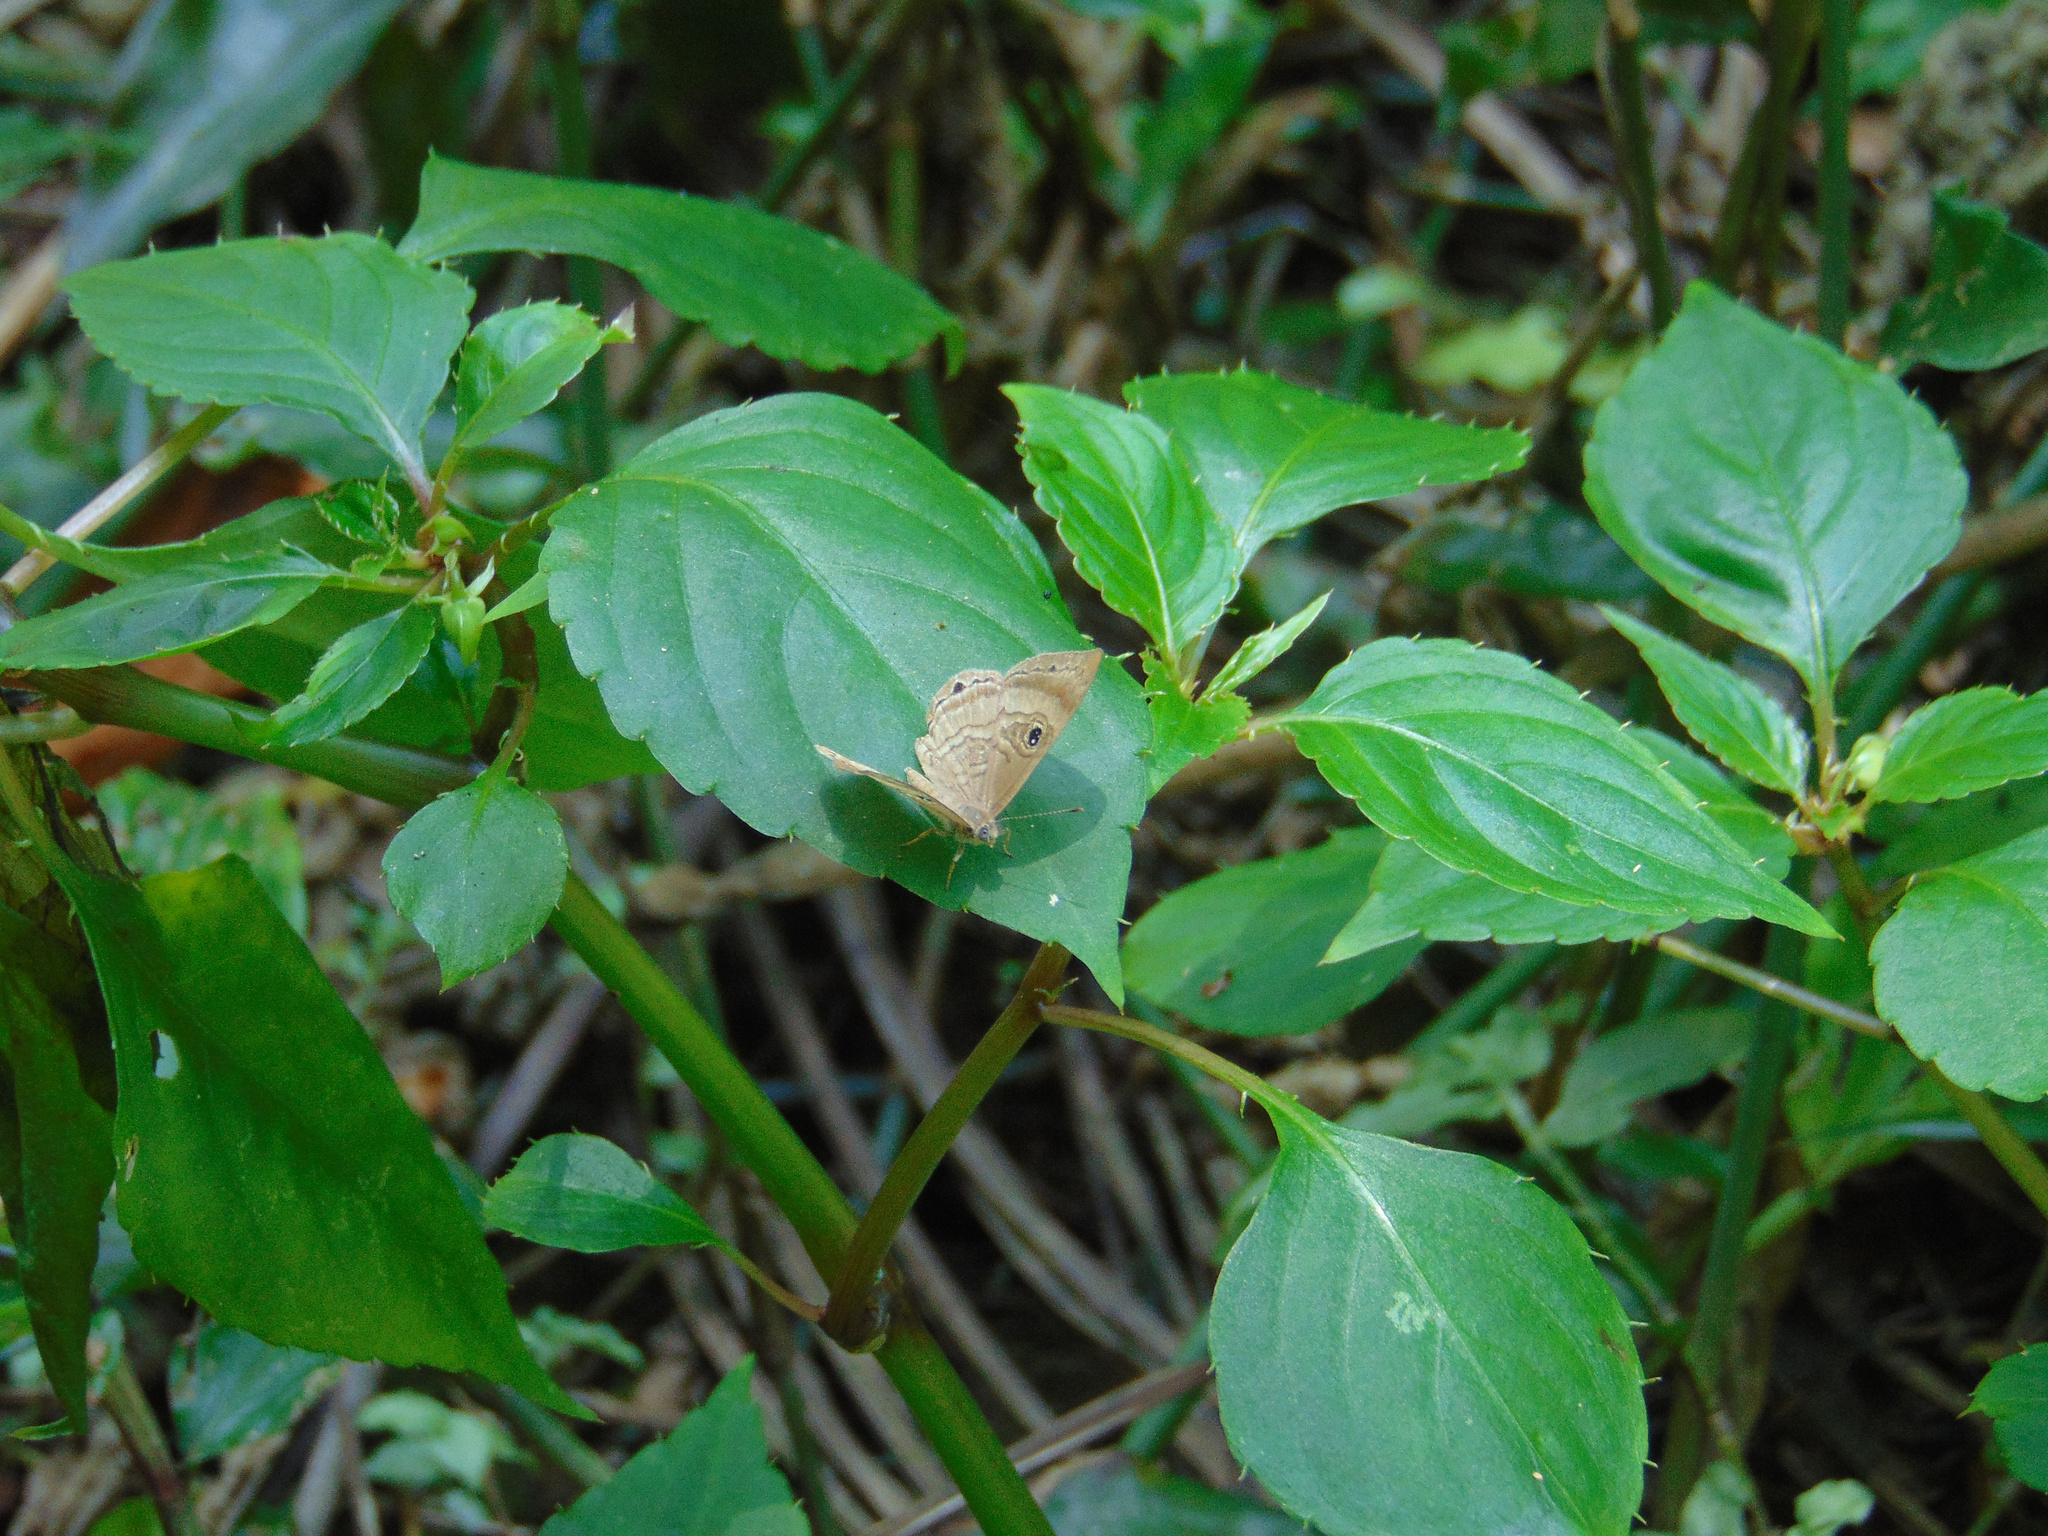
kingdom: Animalia
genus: Mesosemia
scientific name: Mesosemia odice
